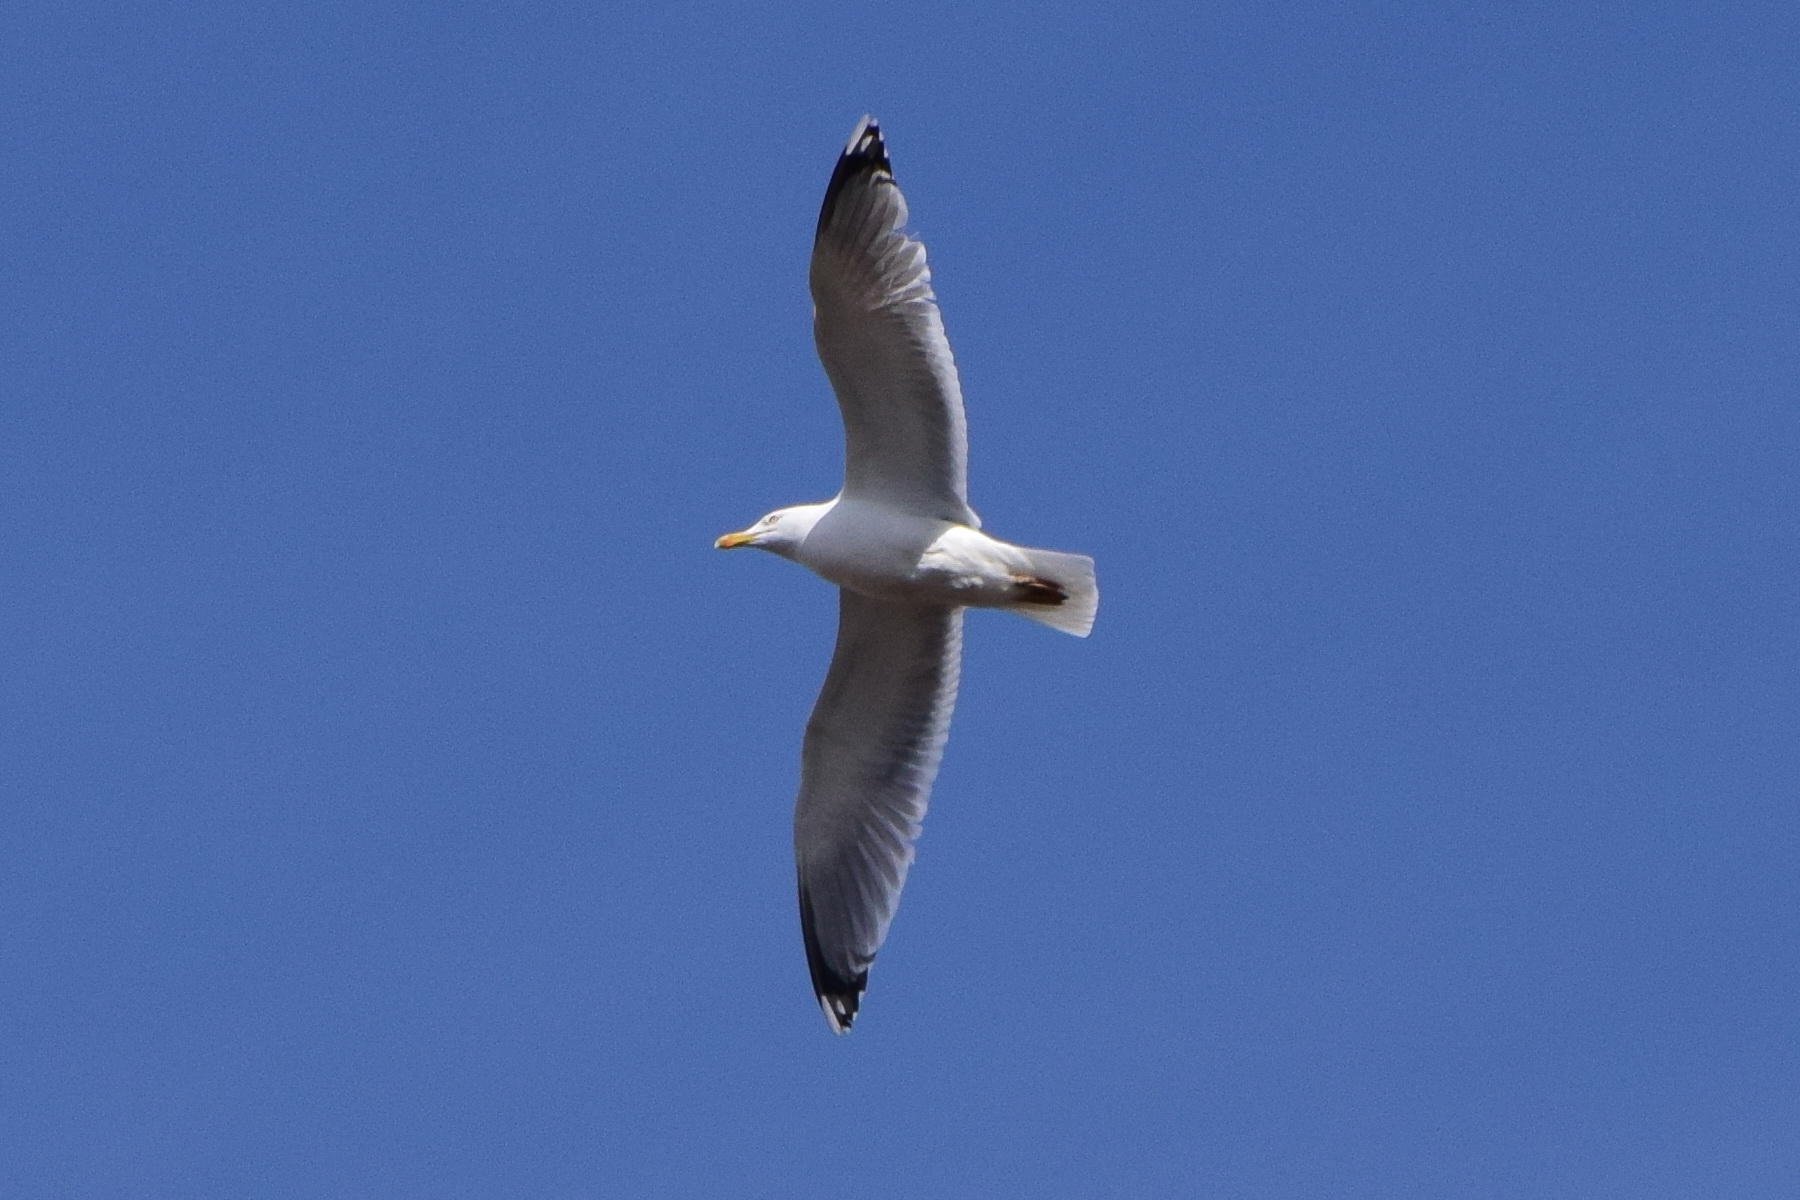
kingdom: Animalia
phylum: Chordata
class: Aves
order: Charadriiformes
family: Laridae
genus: Larus
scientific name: Larus argentatus
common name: Herring gull
